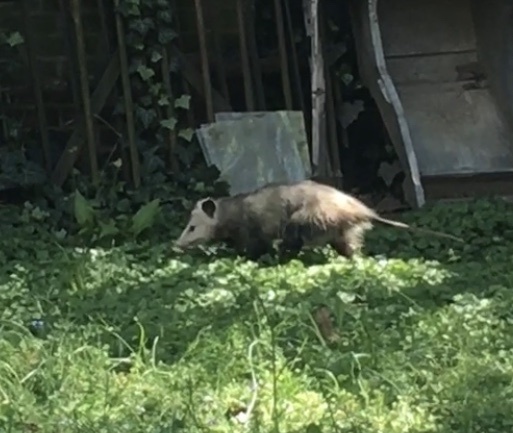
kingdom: Animalia
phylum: Chordata
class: Mammalia
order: Didelphimorphia
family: Didelphidae
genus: Didelphis
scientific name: Didelphis virginiana
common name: Virginia opossum
